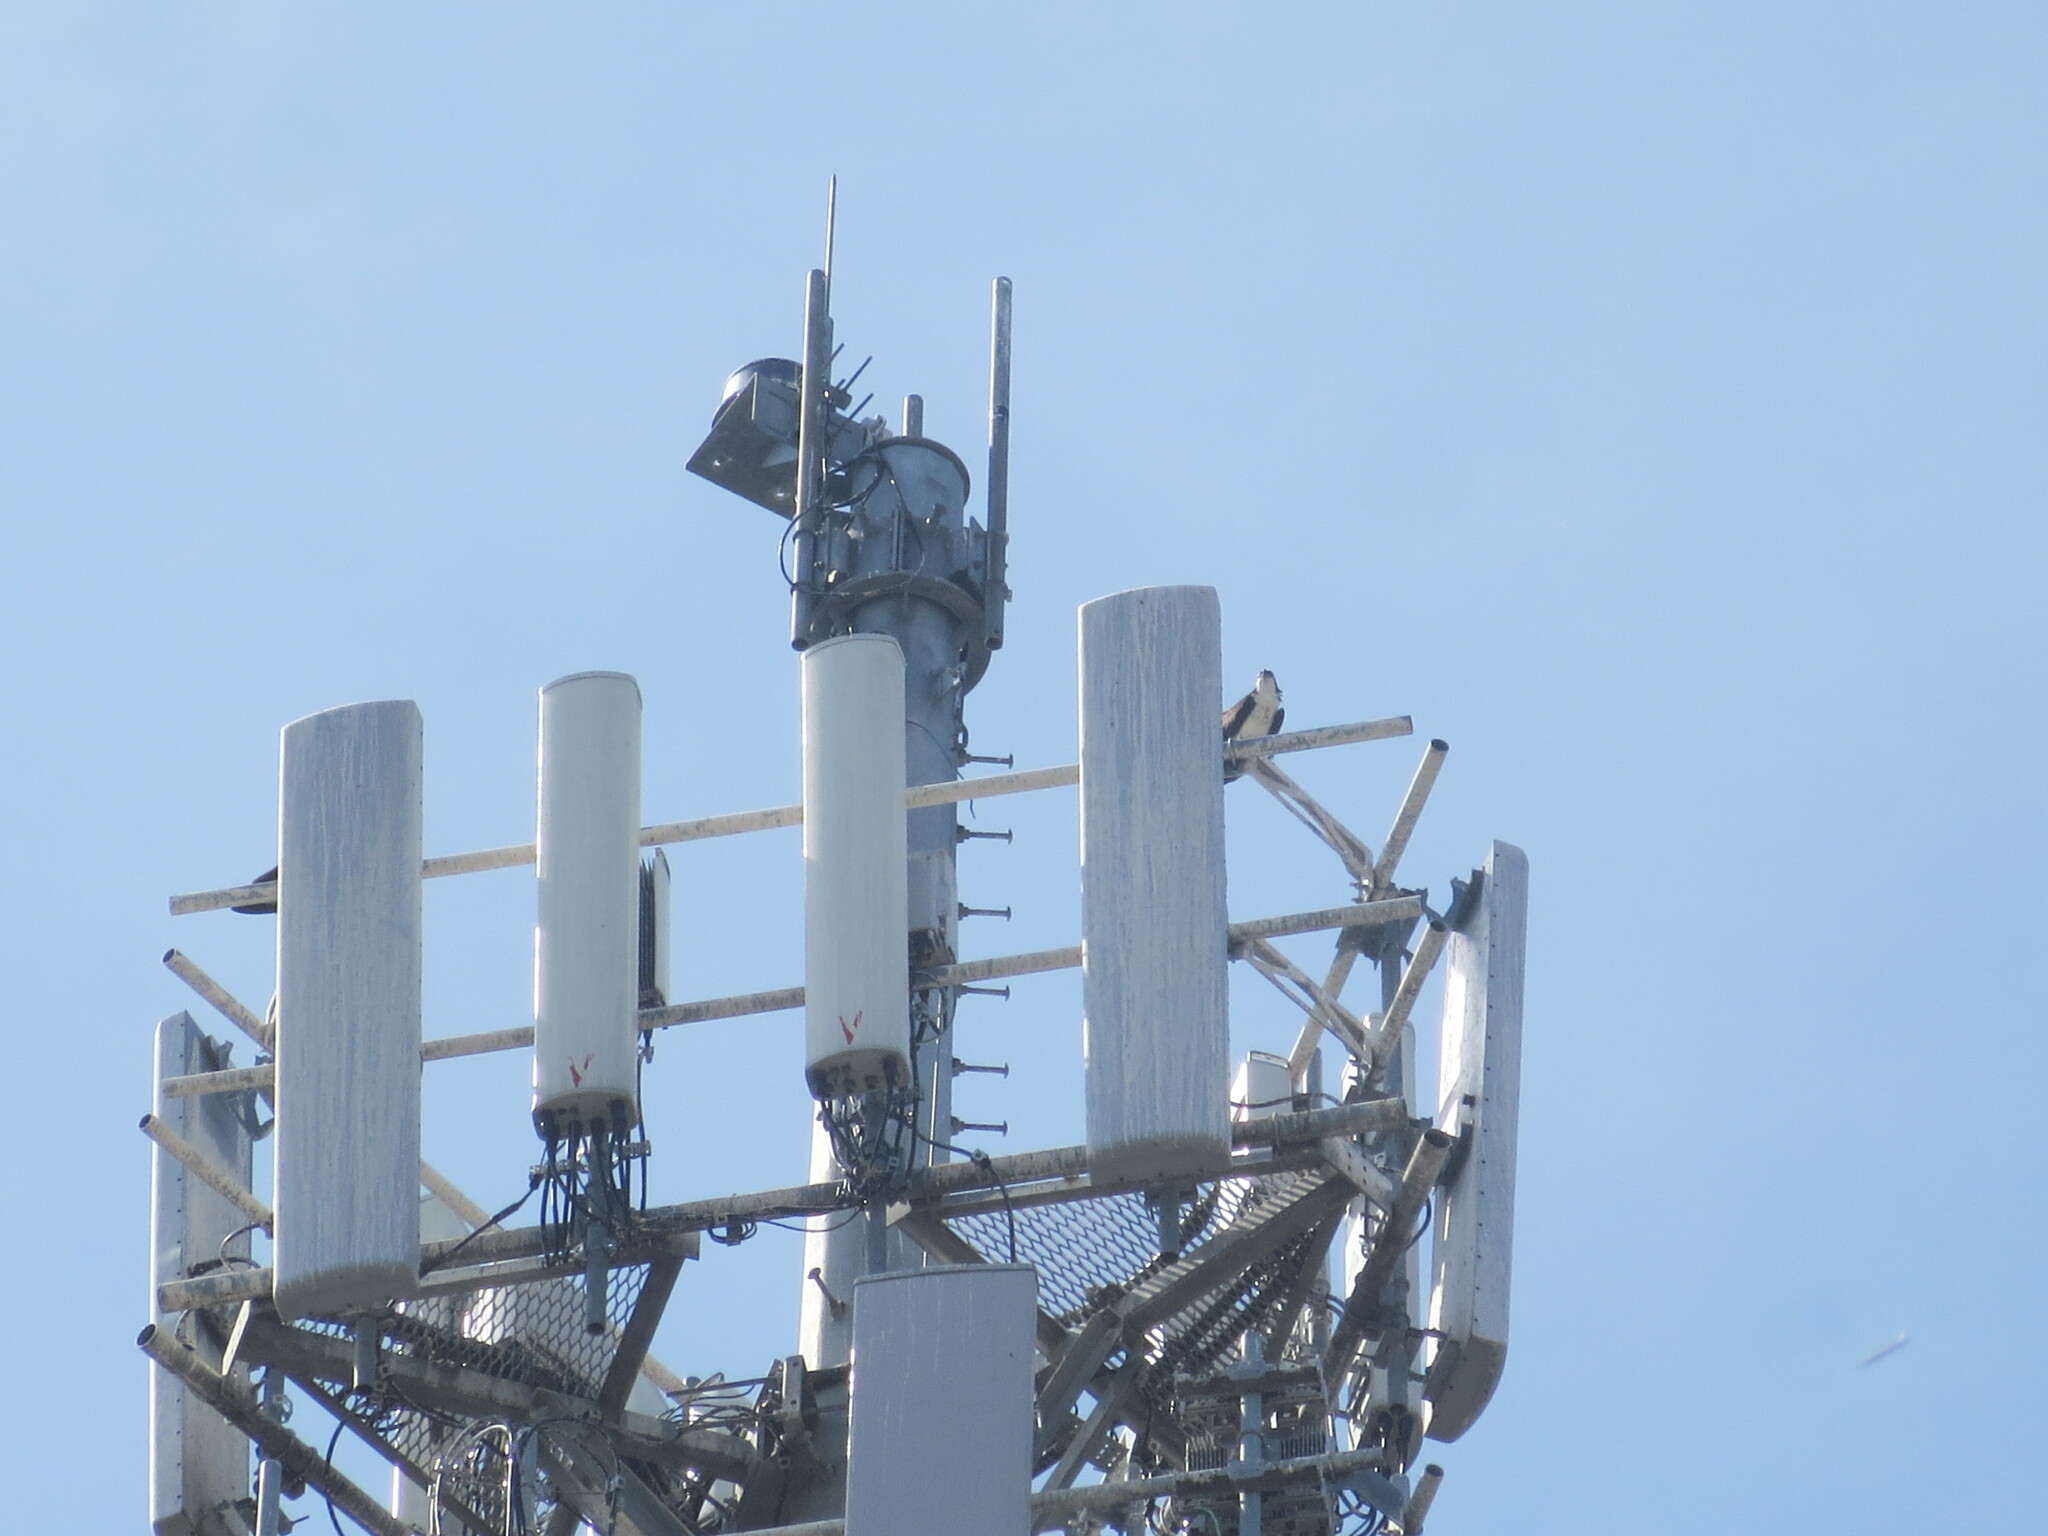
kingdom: Animalia
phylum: Chordata
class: Aves
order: Accipitriformes
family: Pandionidae
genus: Pandion
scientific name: Pandion haliaetus
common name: Osprey
